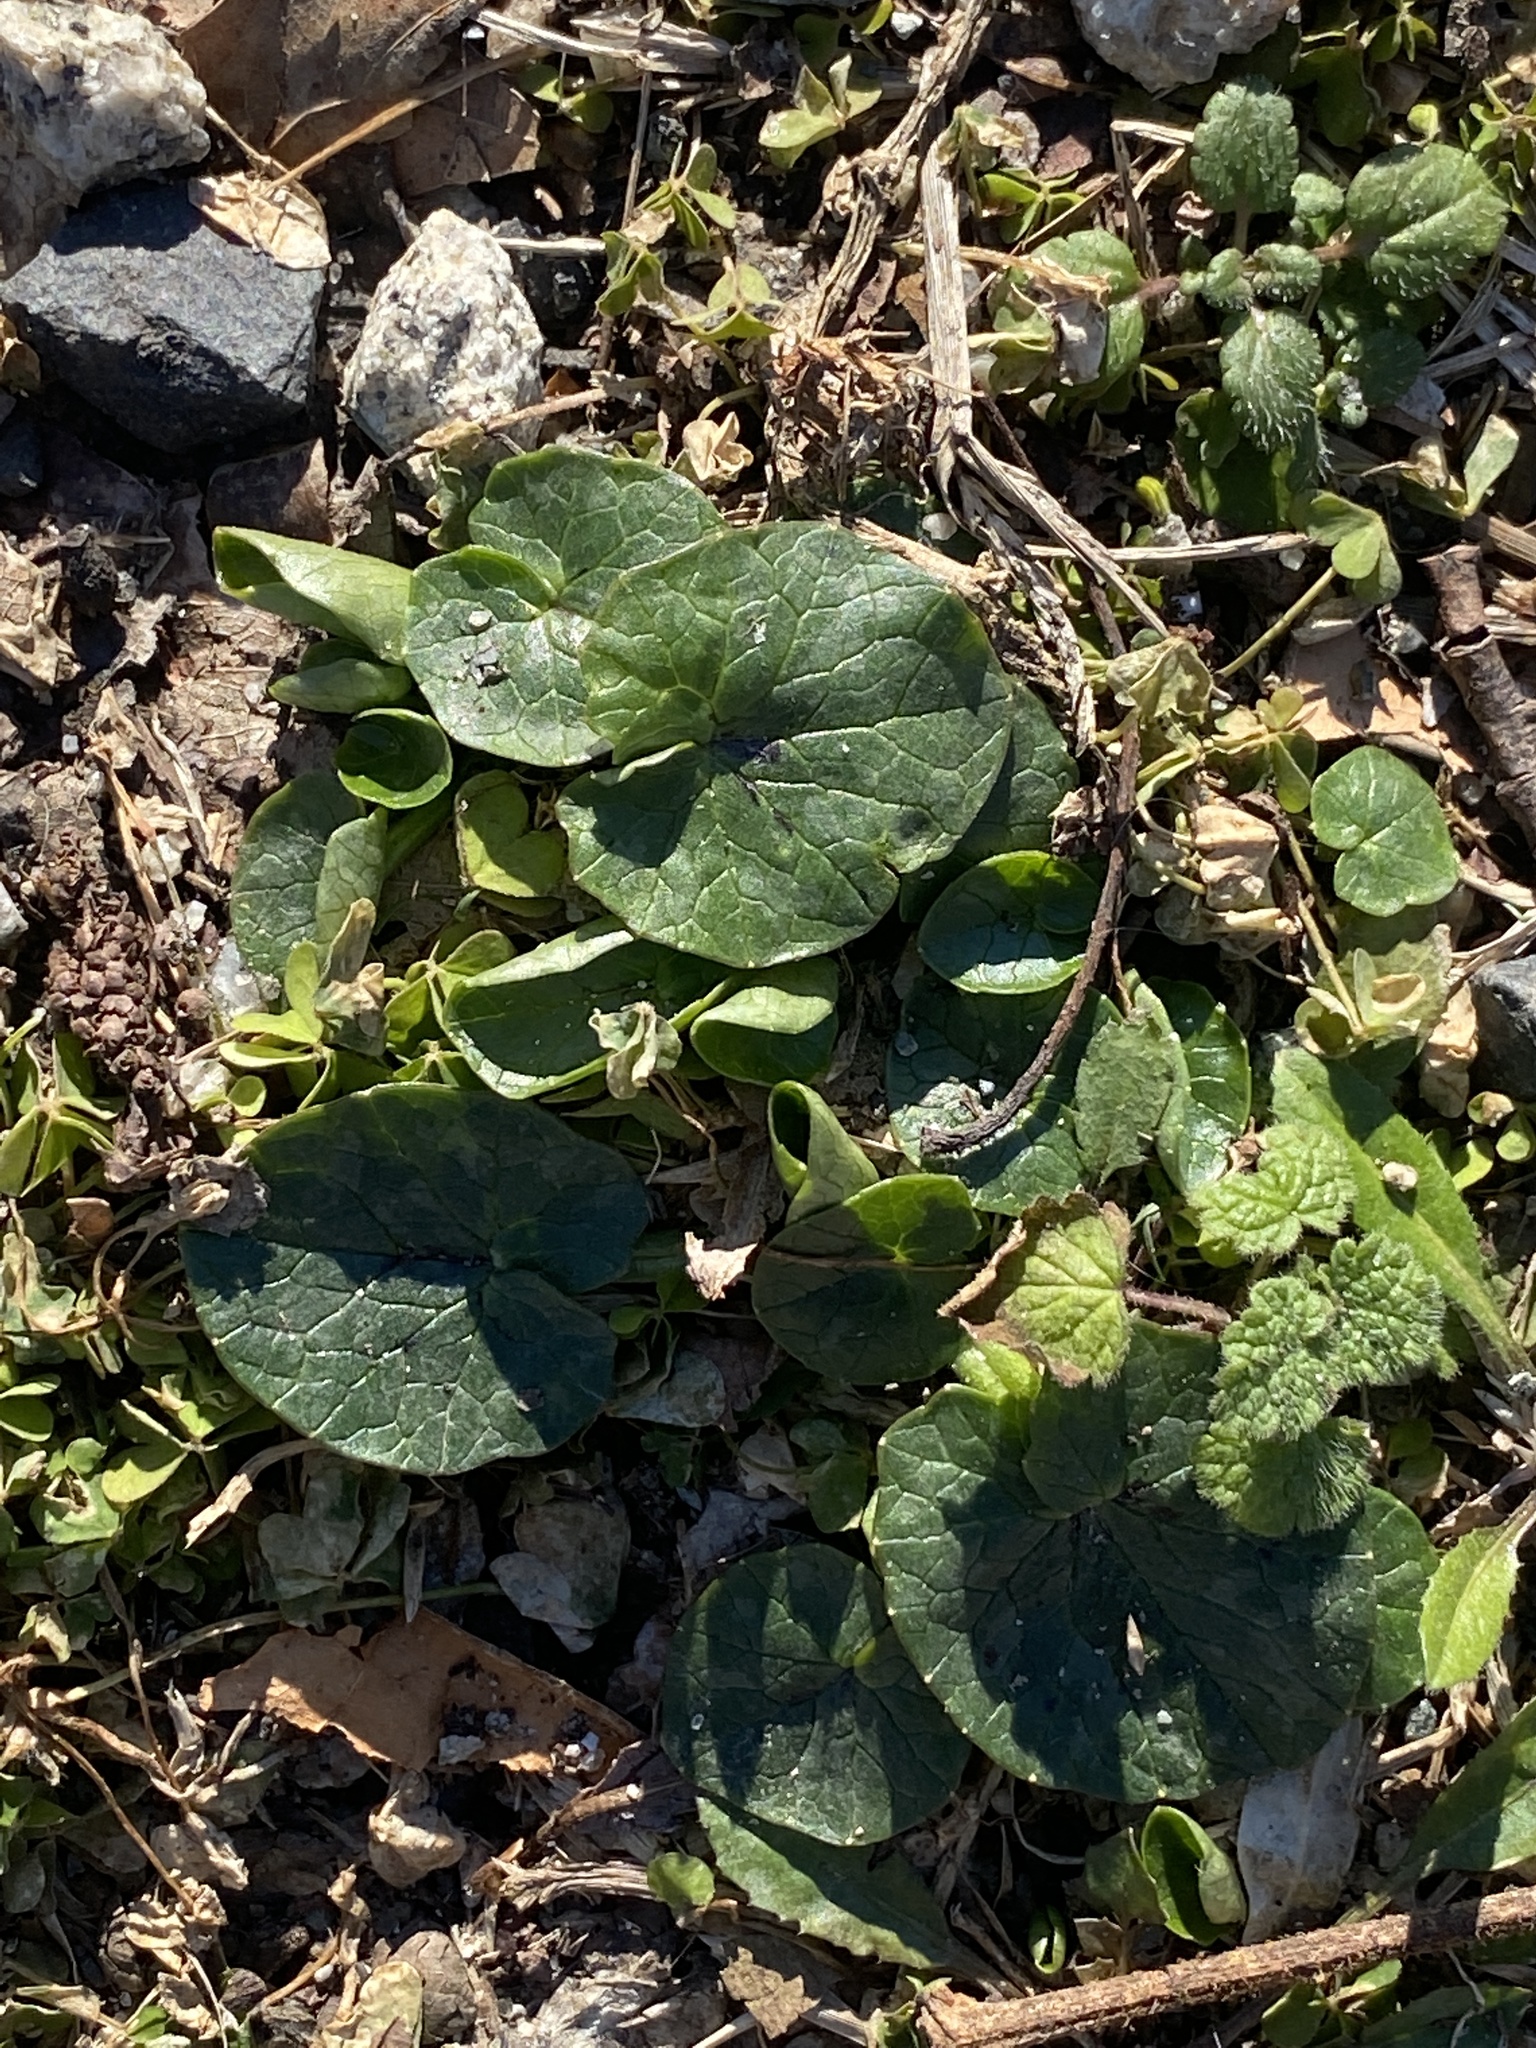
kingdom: Plantae
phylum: Tracheophyta
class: Magnoliopsida
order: Ranunculales
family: Ranunculaceae
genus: Ficaria
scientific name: Ficaria verna
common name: Lesser celandine
